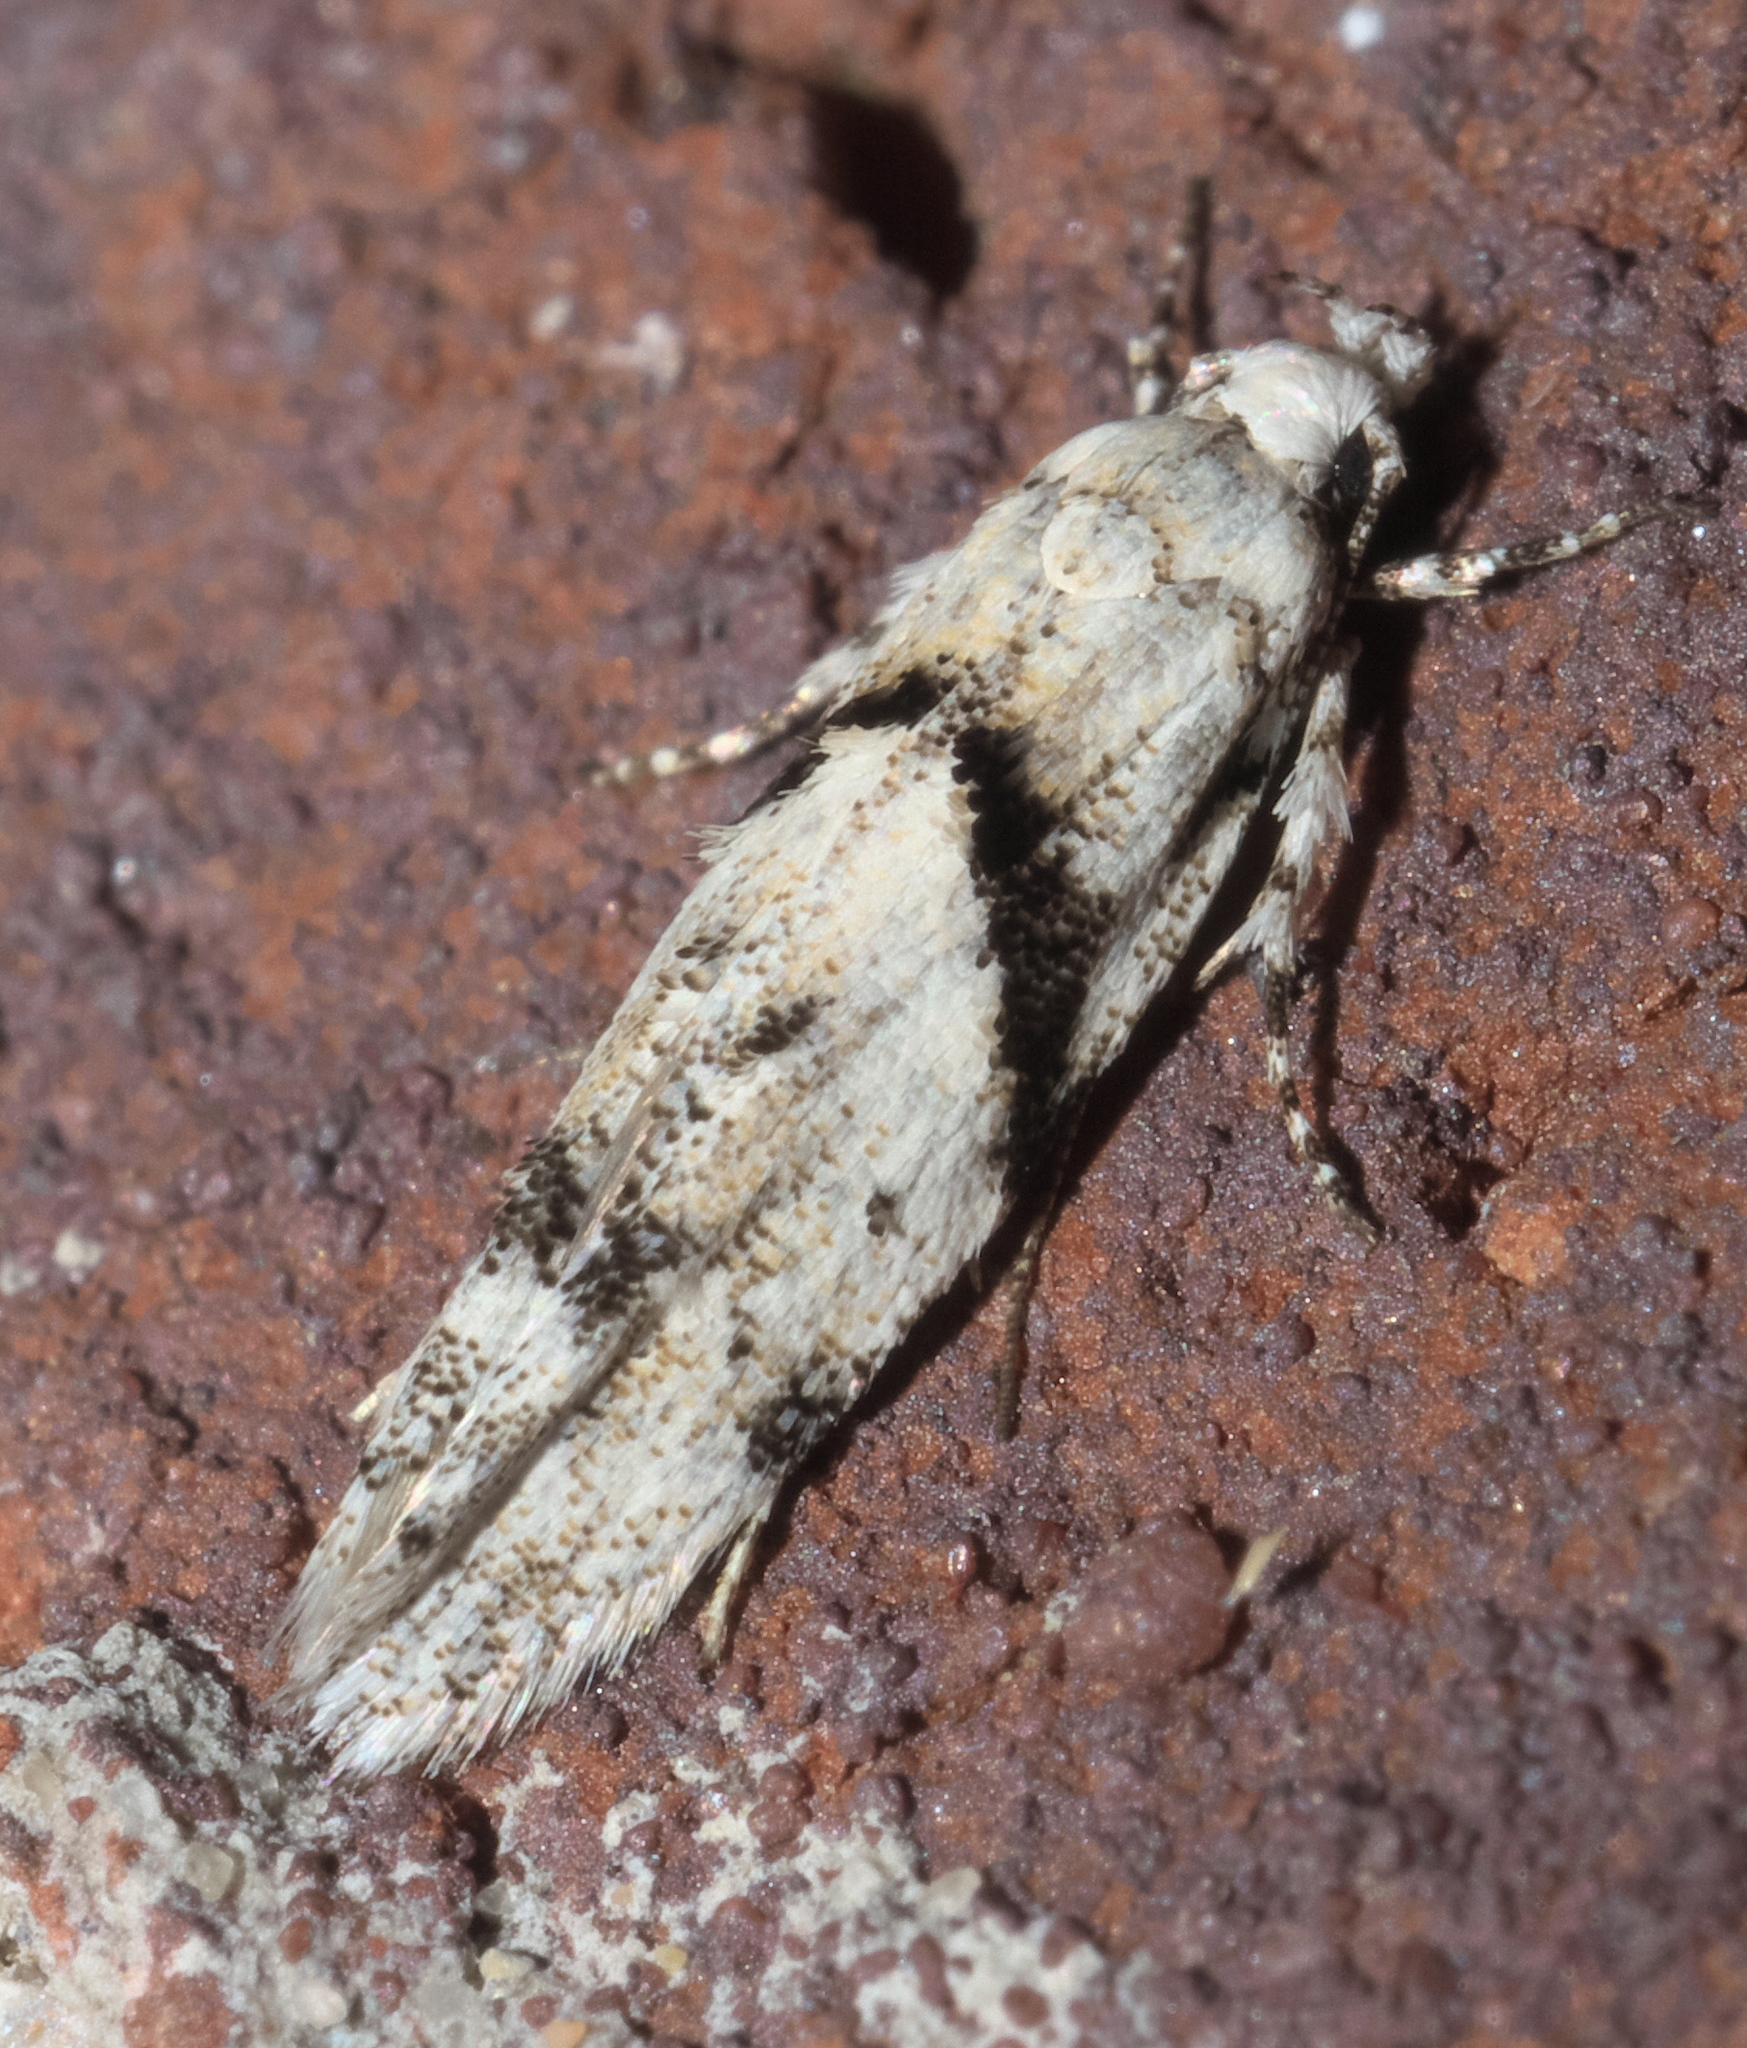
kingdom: Animalia
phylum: Arthropoda
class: Insecta
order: Lepidoptera
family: Gelechiidae
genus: Arogalea
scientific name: Arogalea cristifasciella
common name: White stripe-backed moth
